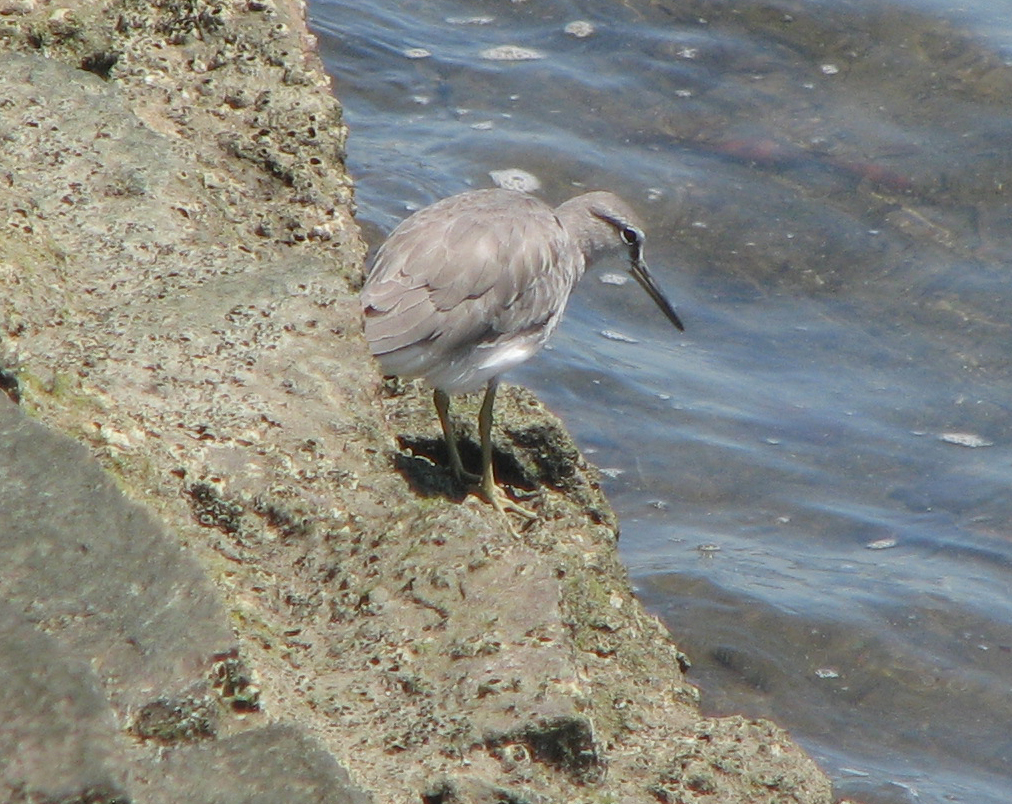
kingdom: Animalia
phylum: Chordata
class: Aves
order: Charadriiformes
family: Scolopacidae
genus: Tringa
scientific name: Tringa brevipes
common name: Grey-tailed tattler
